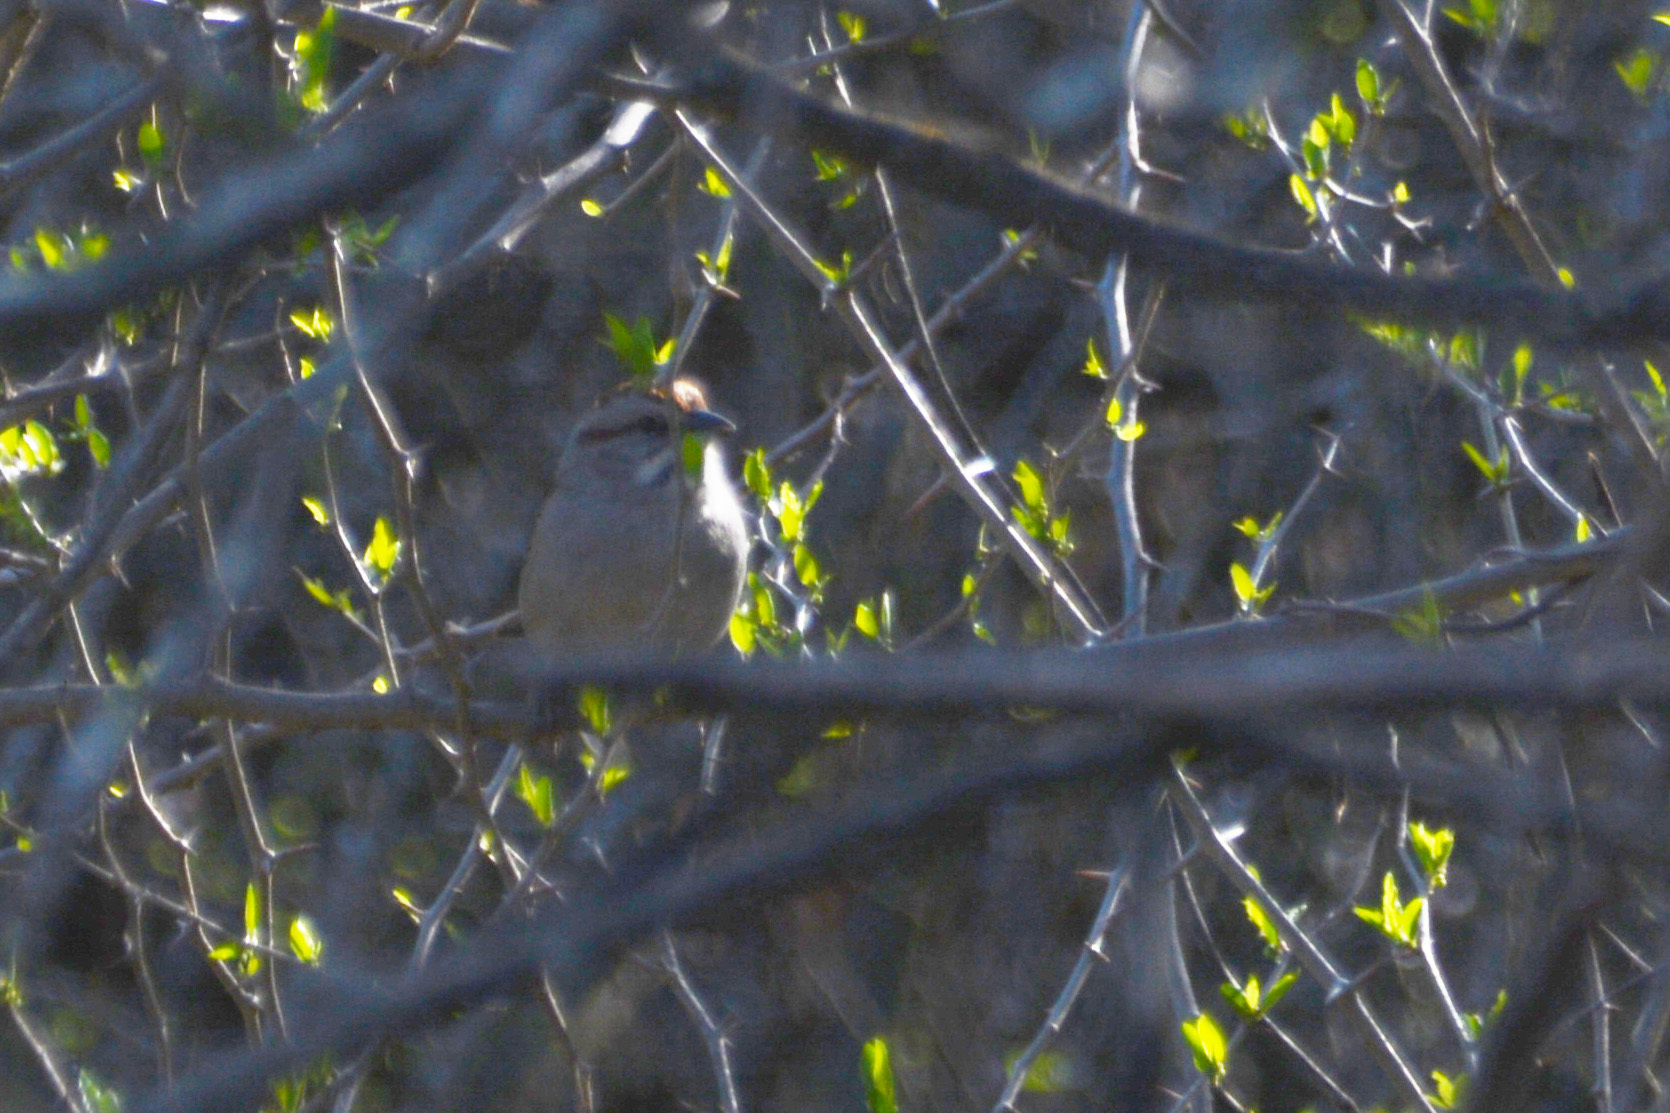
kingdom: Animalia
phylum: Chordata
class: Aves
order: Passeriformes
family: Passerellidae
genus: Rhynchospiza
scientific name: Rhynchospiza strigiceps
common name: Stripe-capped sparrow
